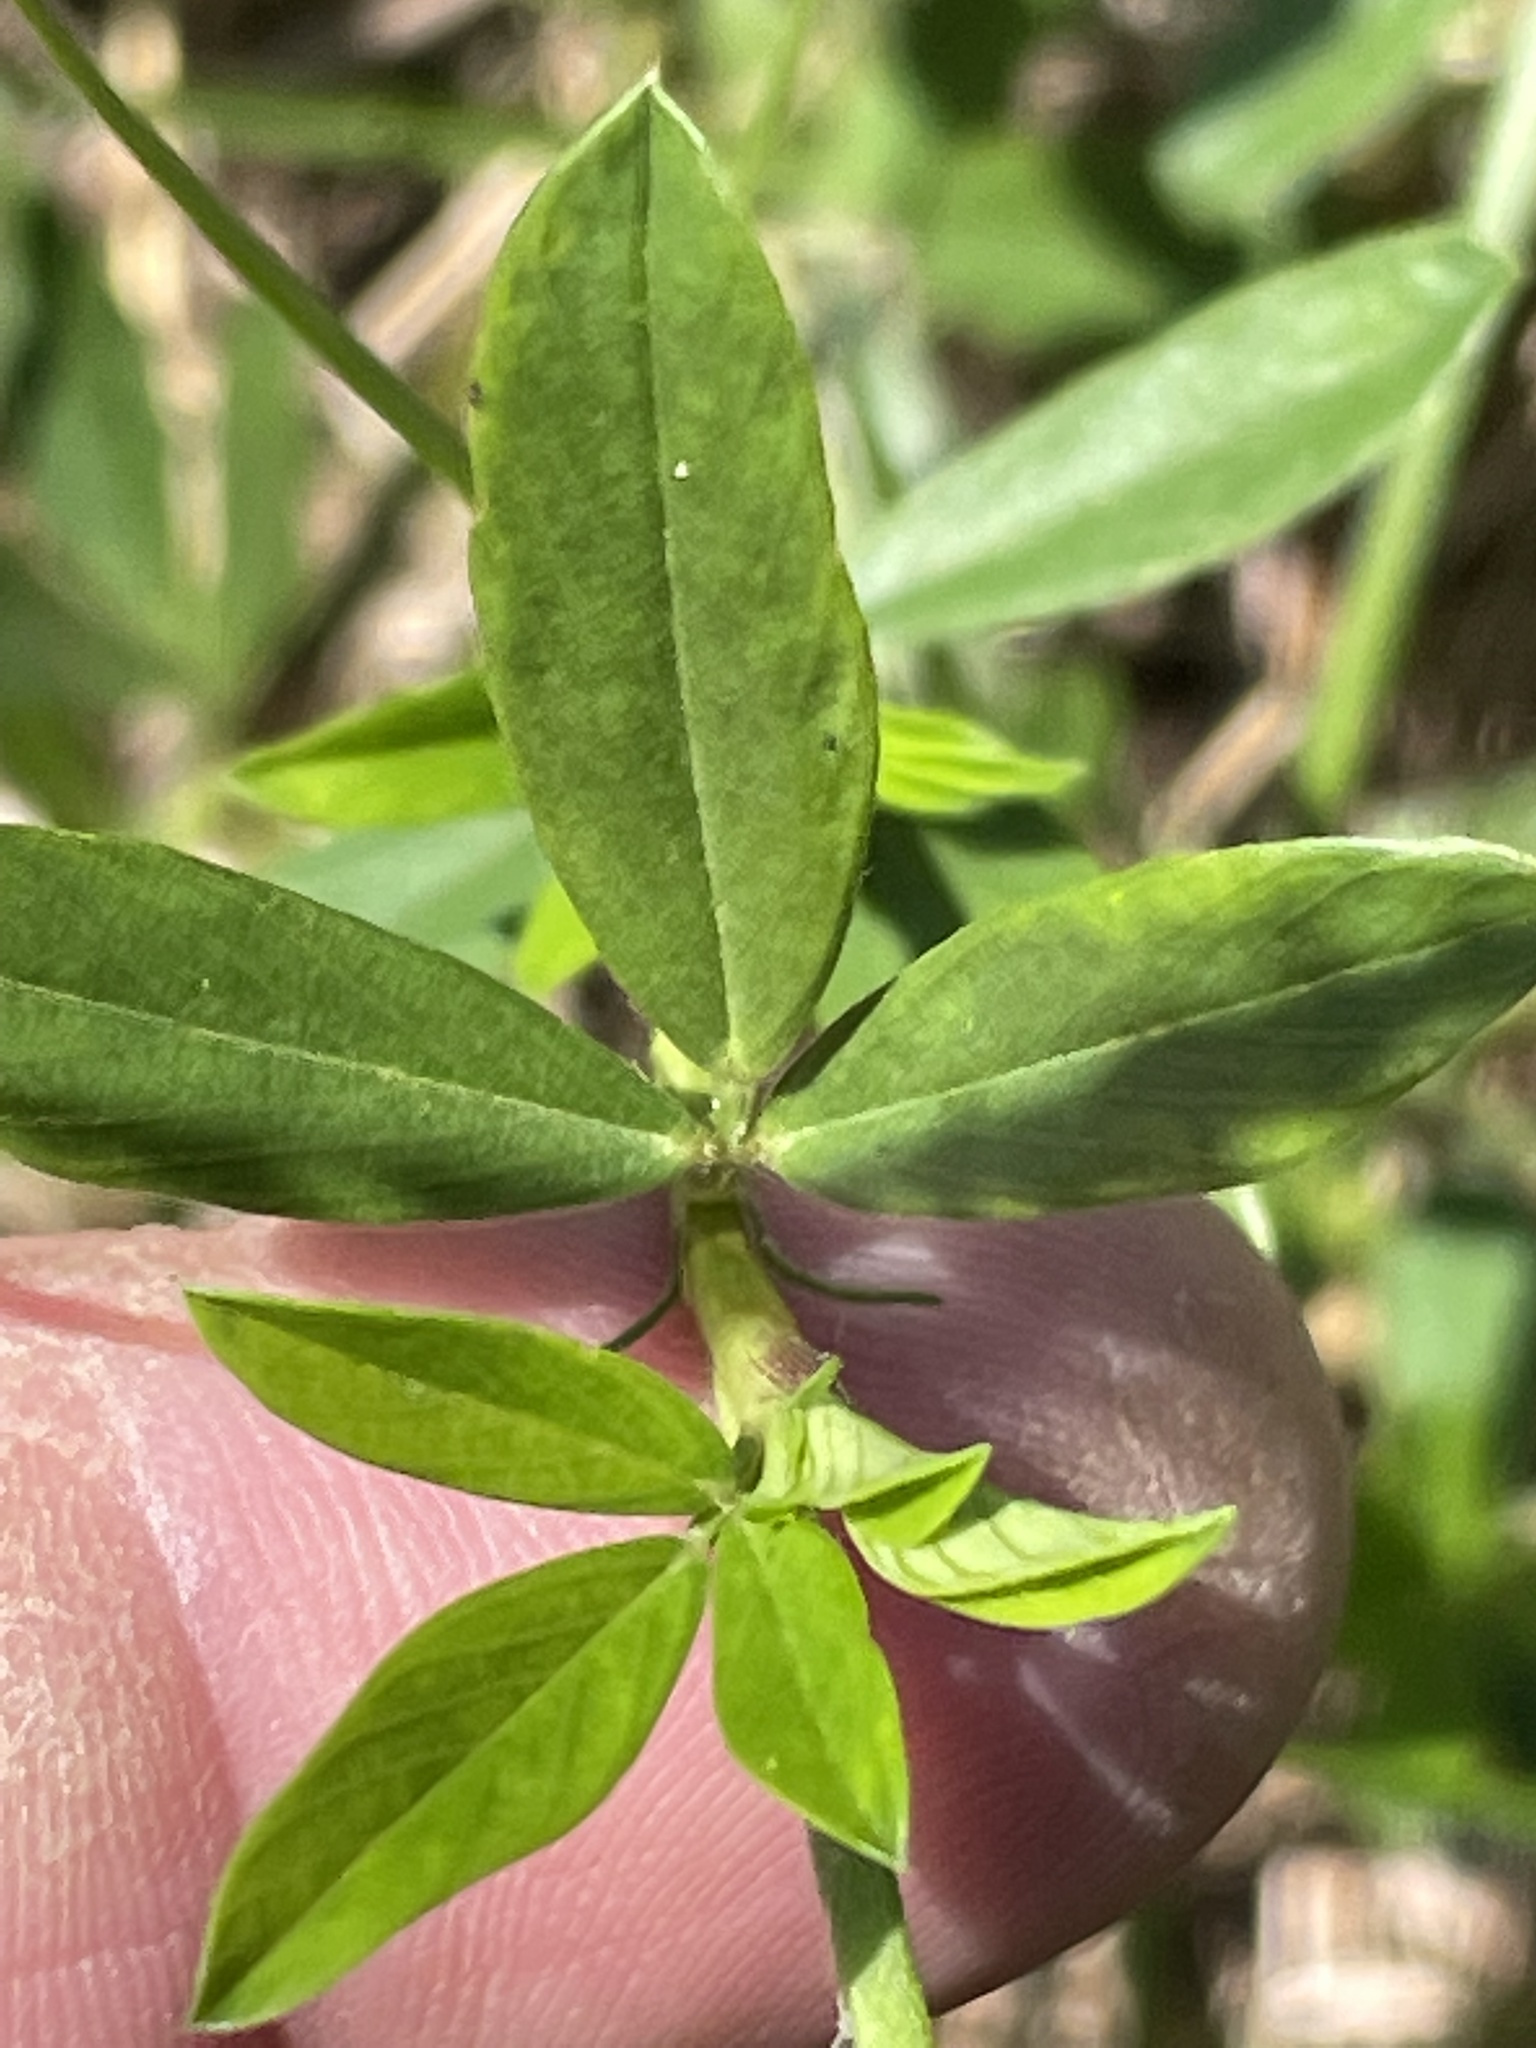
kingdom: Plantae
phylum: Tracheophyta
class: Magnoliopsida
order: Fabales
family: Fabaceae
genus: Stylosanthes
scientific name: Stylosanthes biflora
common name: Two-flower pencil-flower
